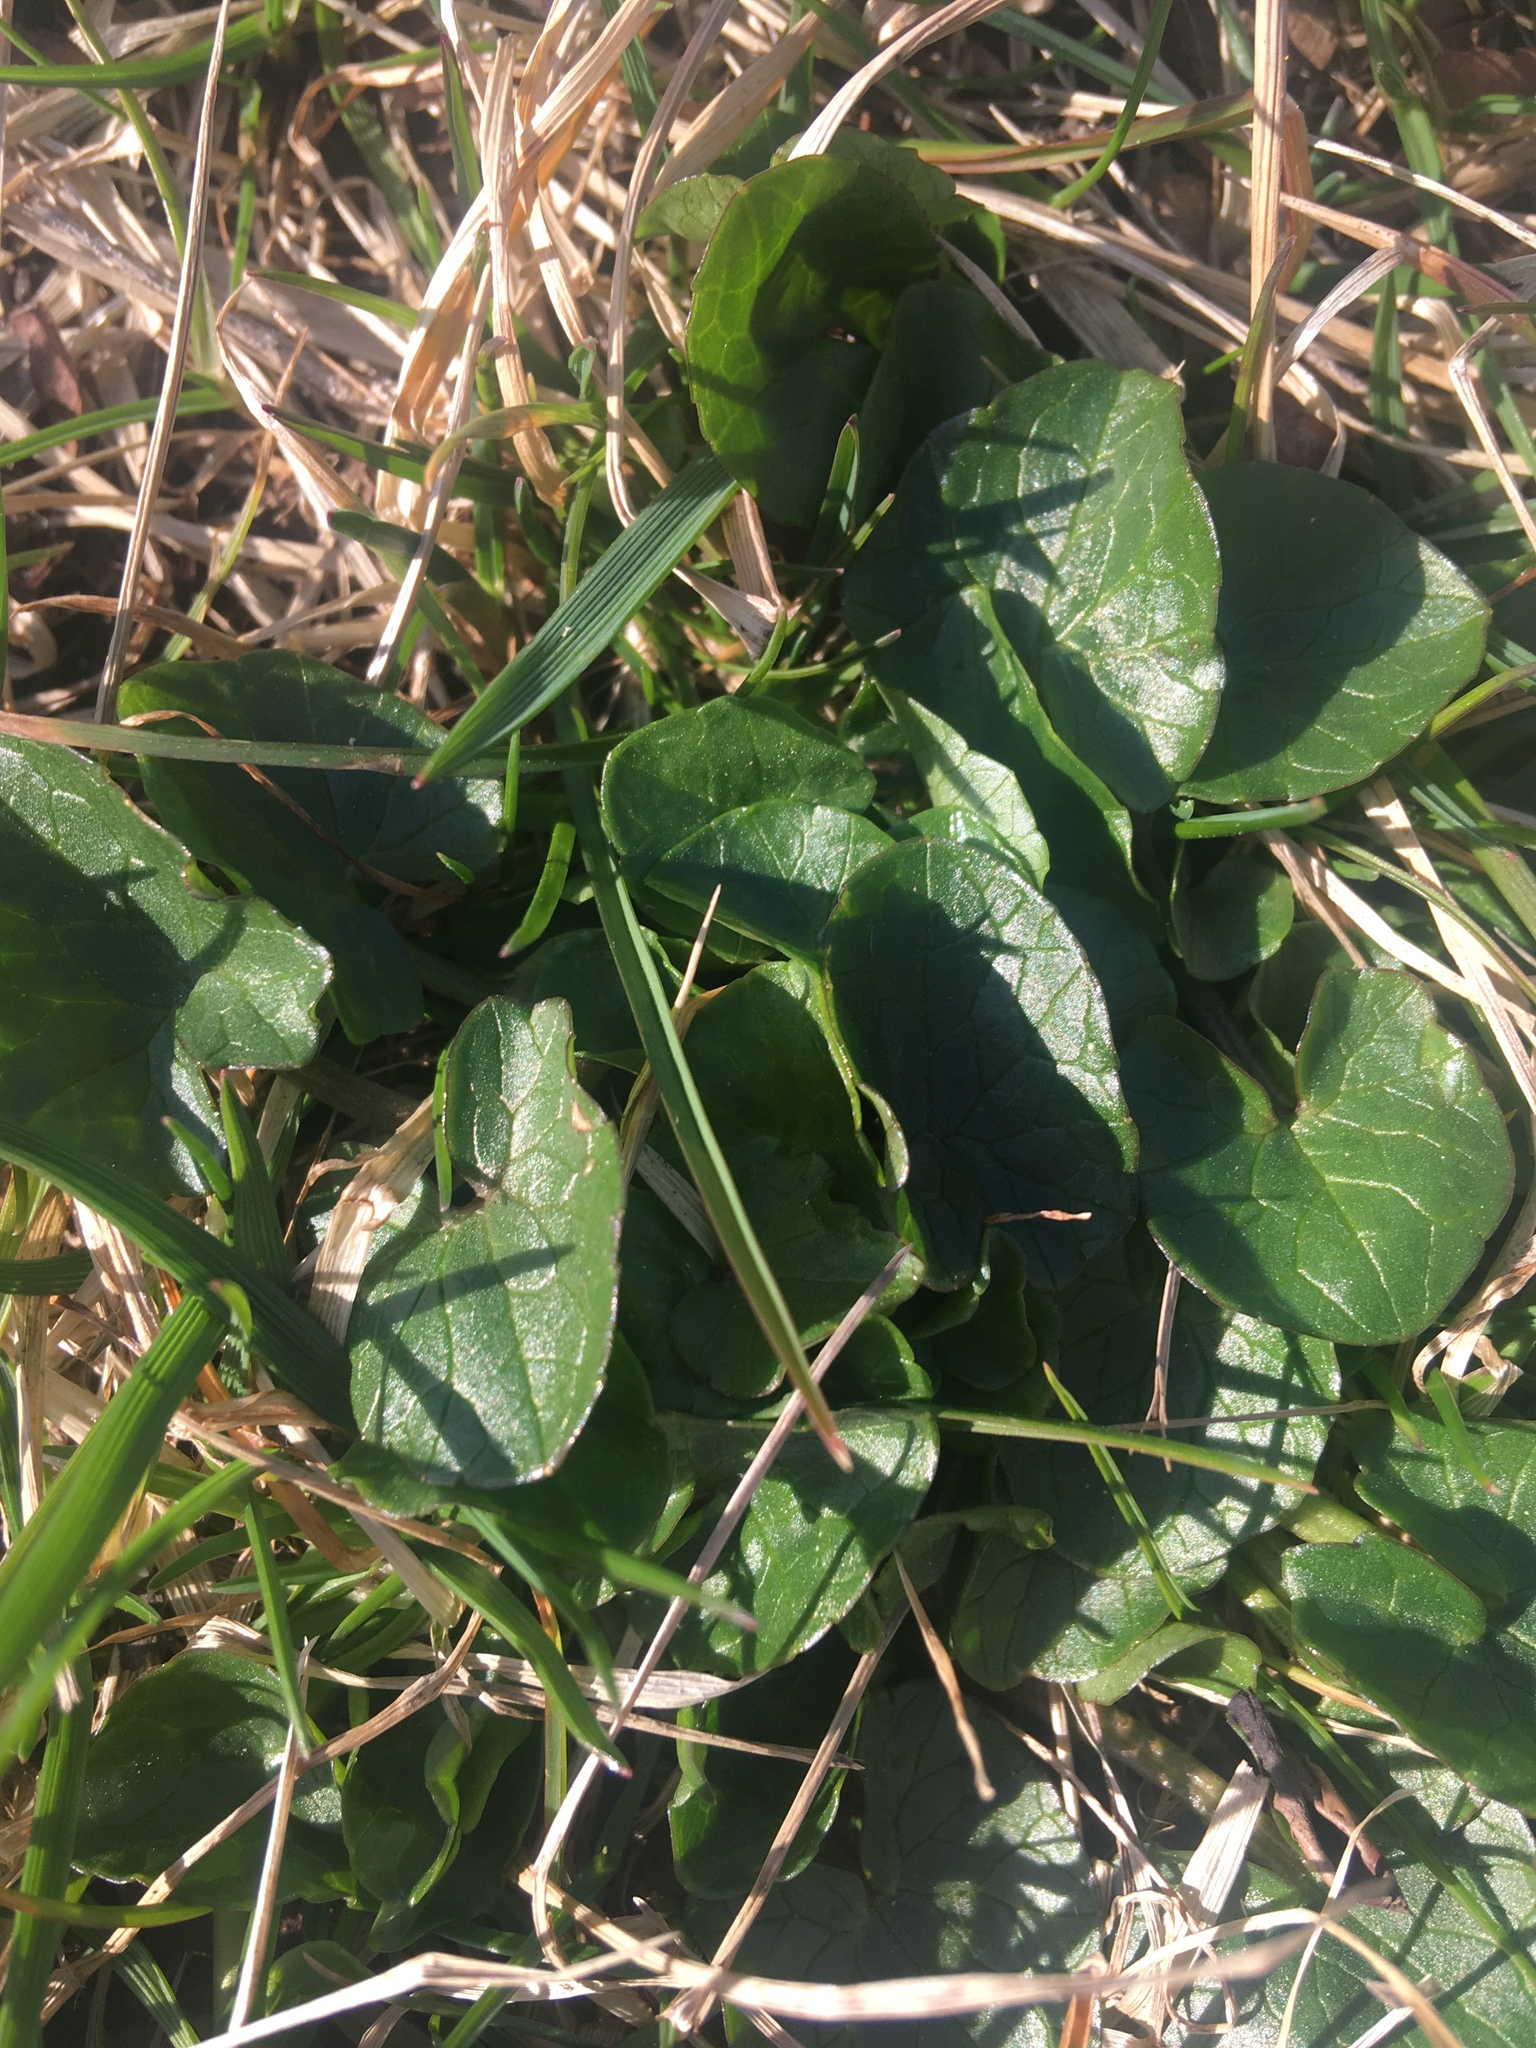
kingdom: Plantae
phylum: Tracheophyta
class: Magnoliopsida
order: Ranunculales
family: Ranunculaceae
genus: Ficaria
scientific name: Ficaria verna
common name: Lesser celandine
